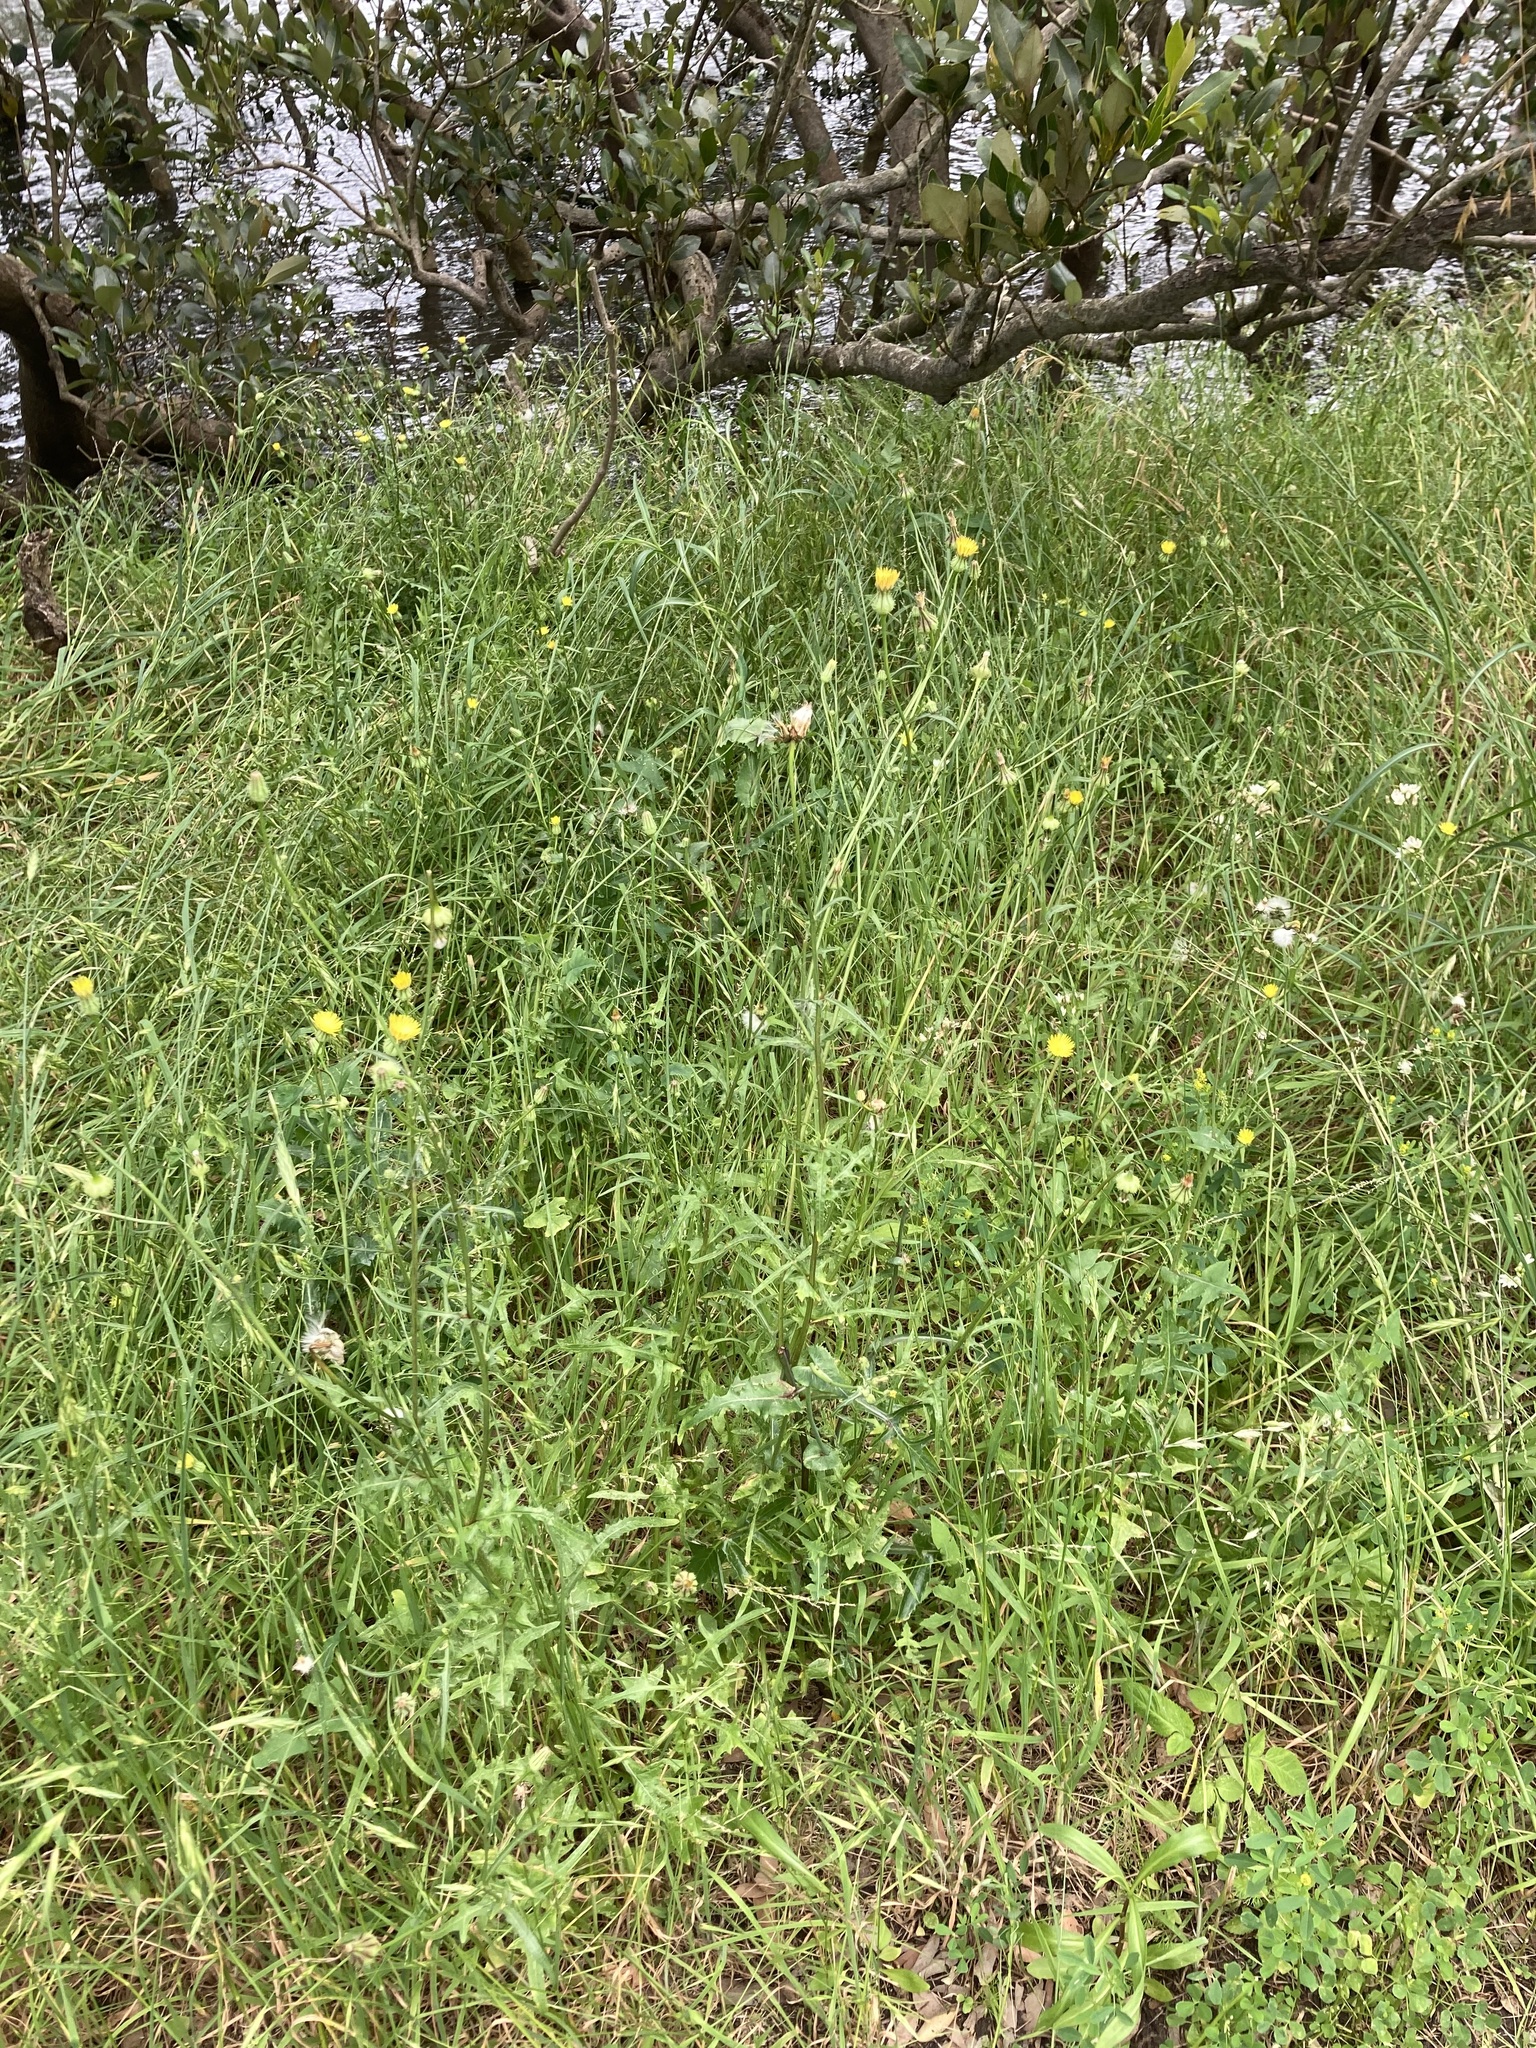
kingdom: Plantae
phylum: Tracheophyta
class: Magnoliopsida
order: Asterales
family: Asteraceae
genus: Urospermum
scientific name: Urospermum picroides
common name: False hawkbit
